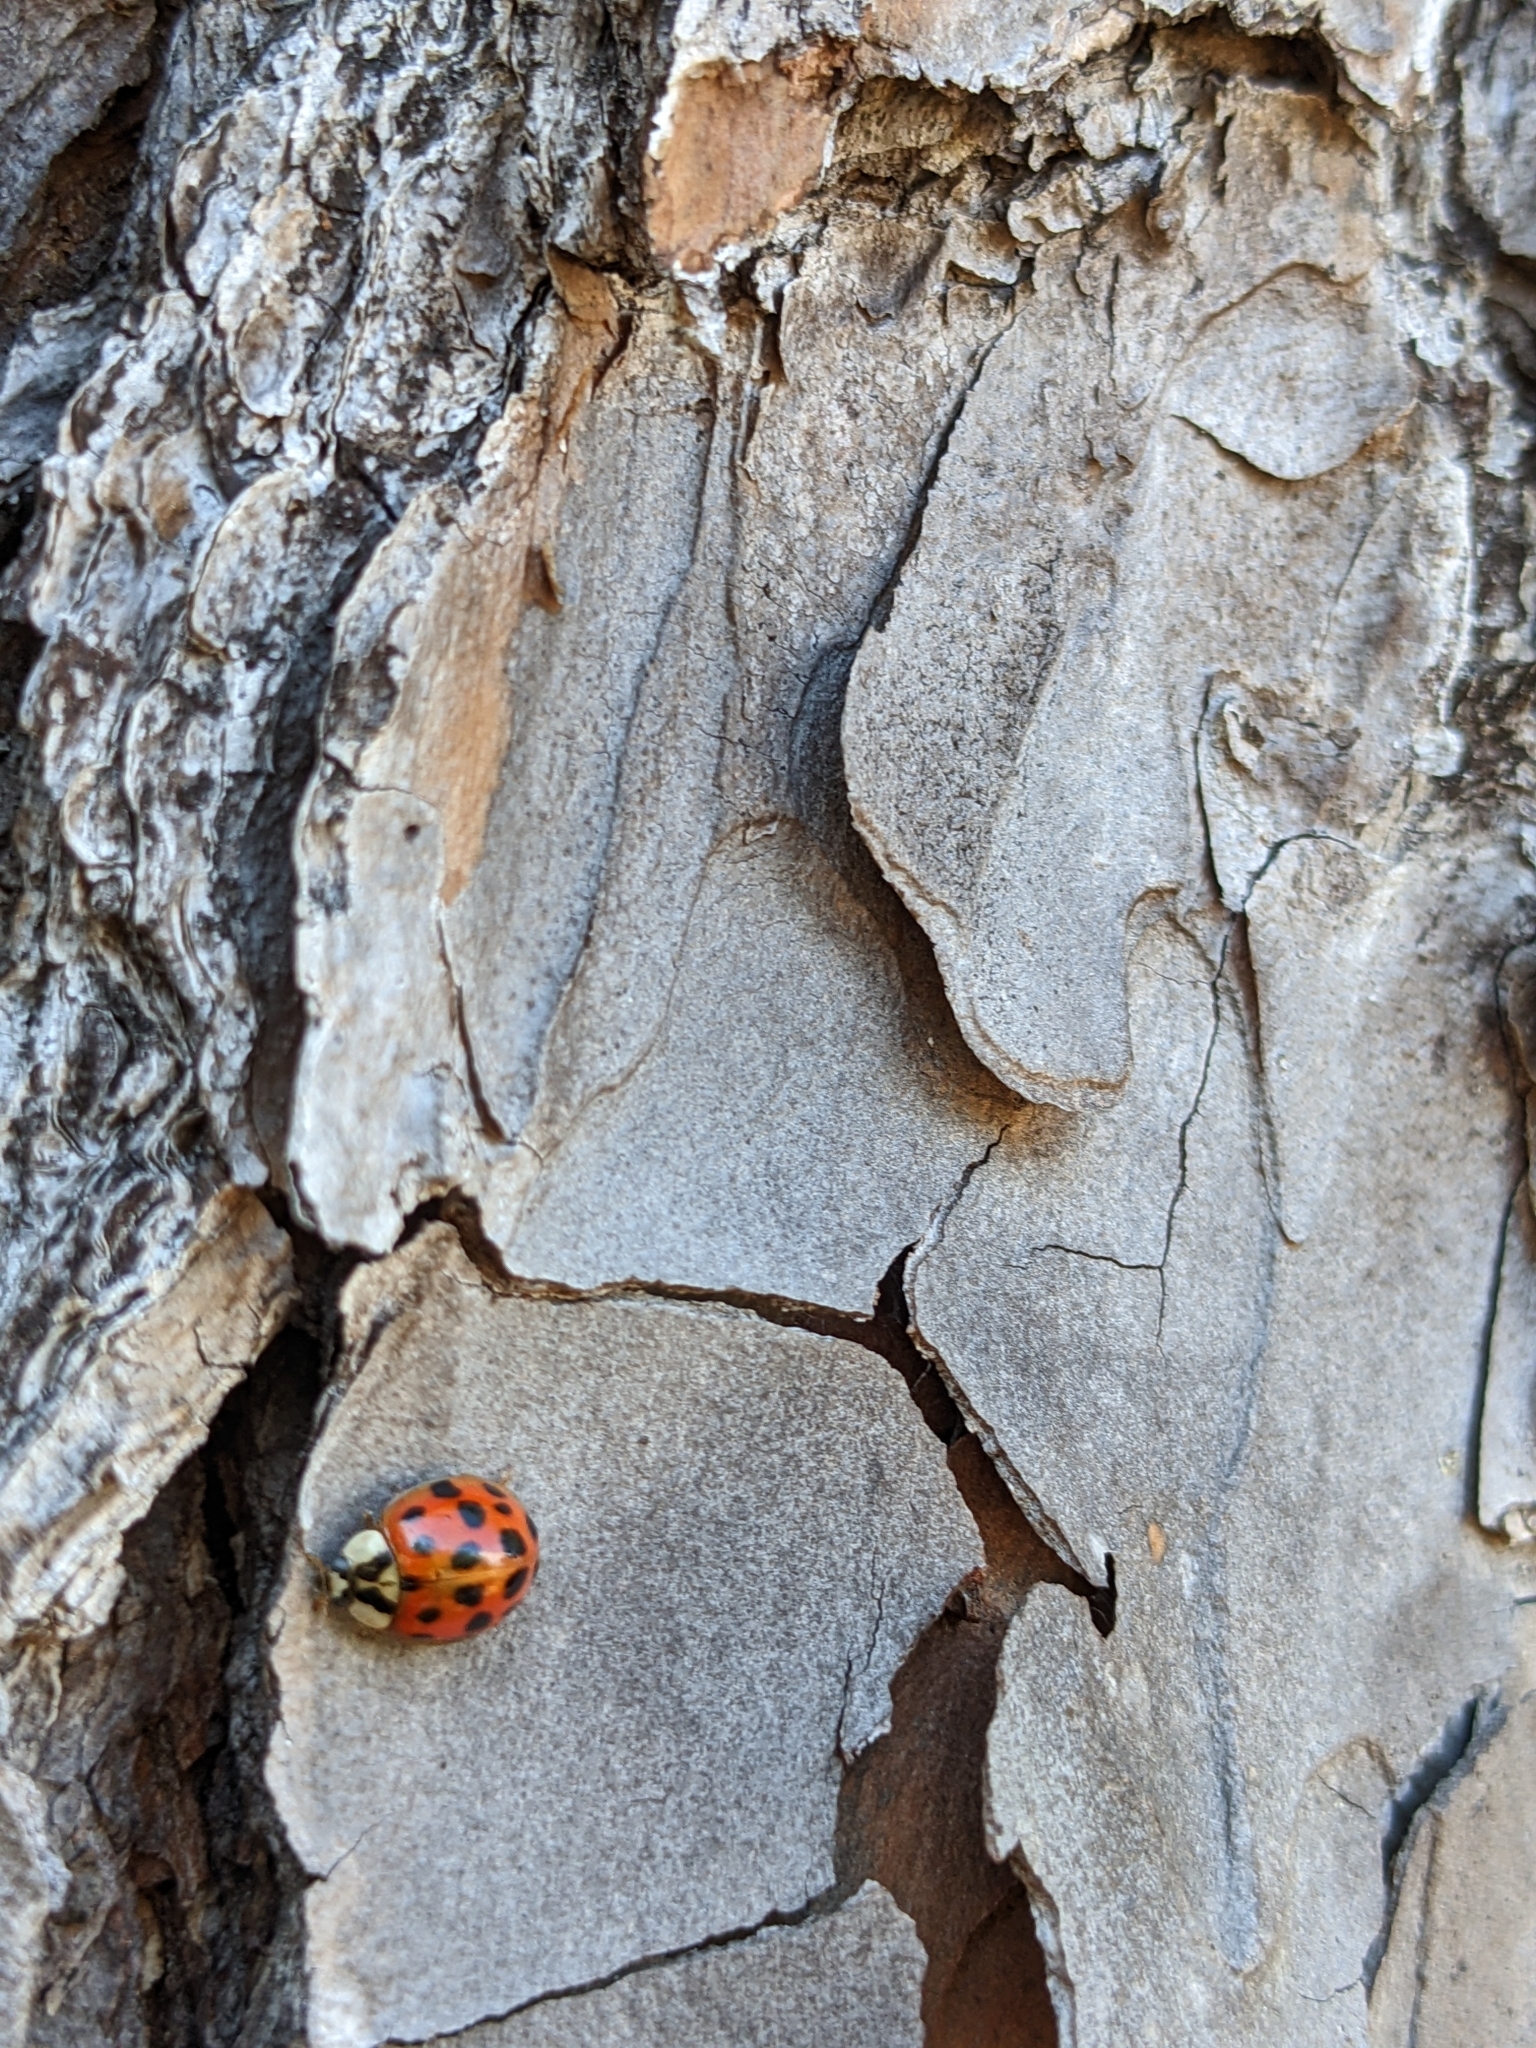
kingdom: Animalia
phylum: Arthropoda
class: Insecta
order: Coleoptera
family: Coccinellidae
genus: Harmonia
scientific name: Harmonia axyridis
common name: Harlequin ladybird
